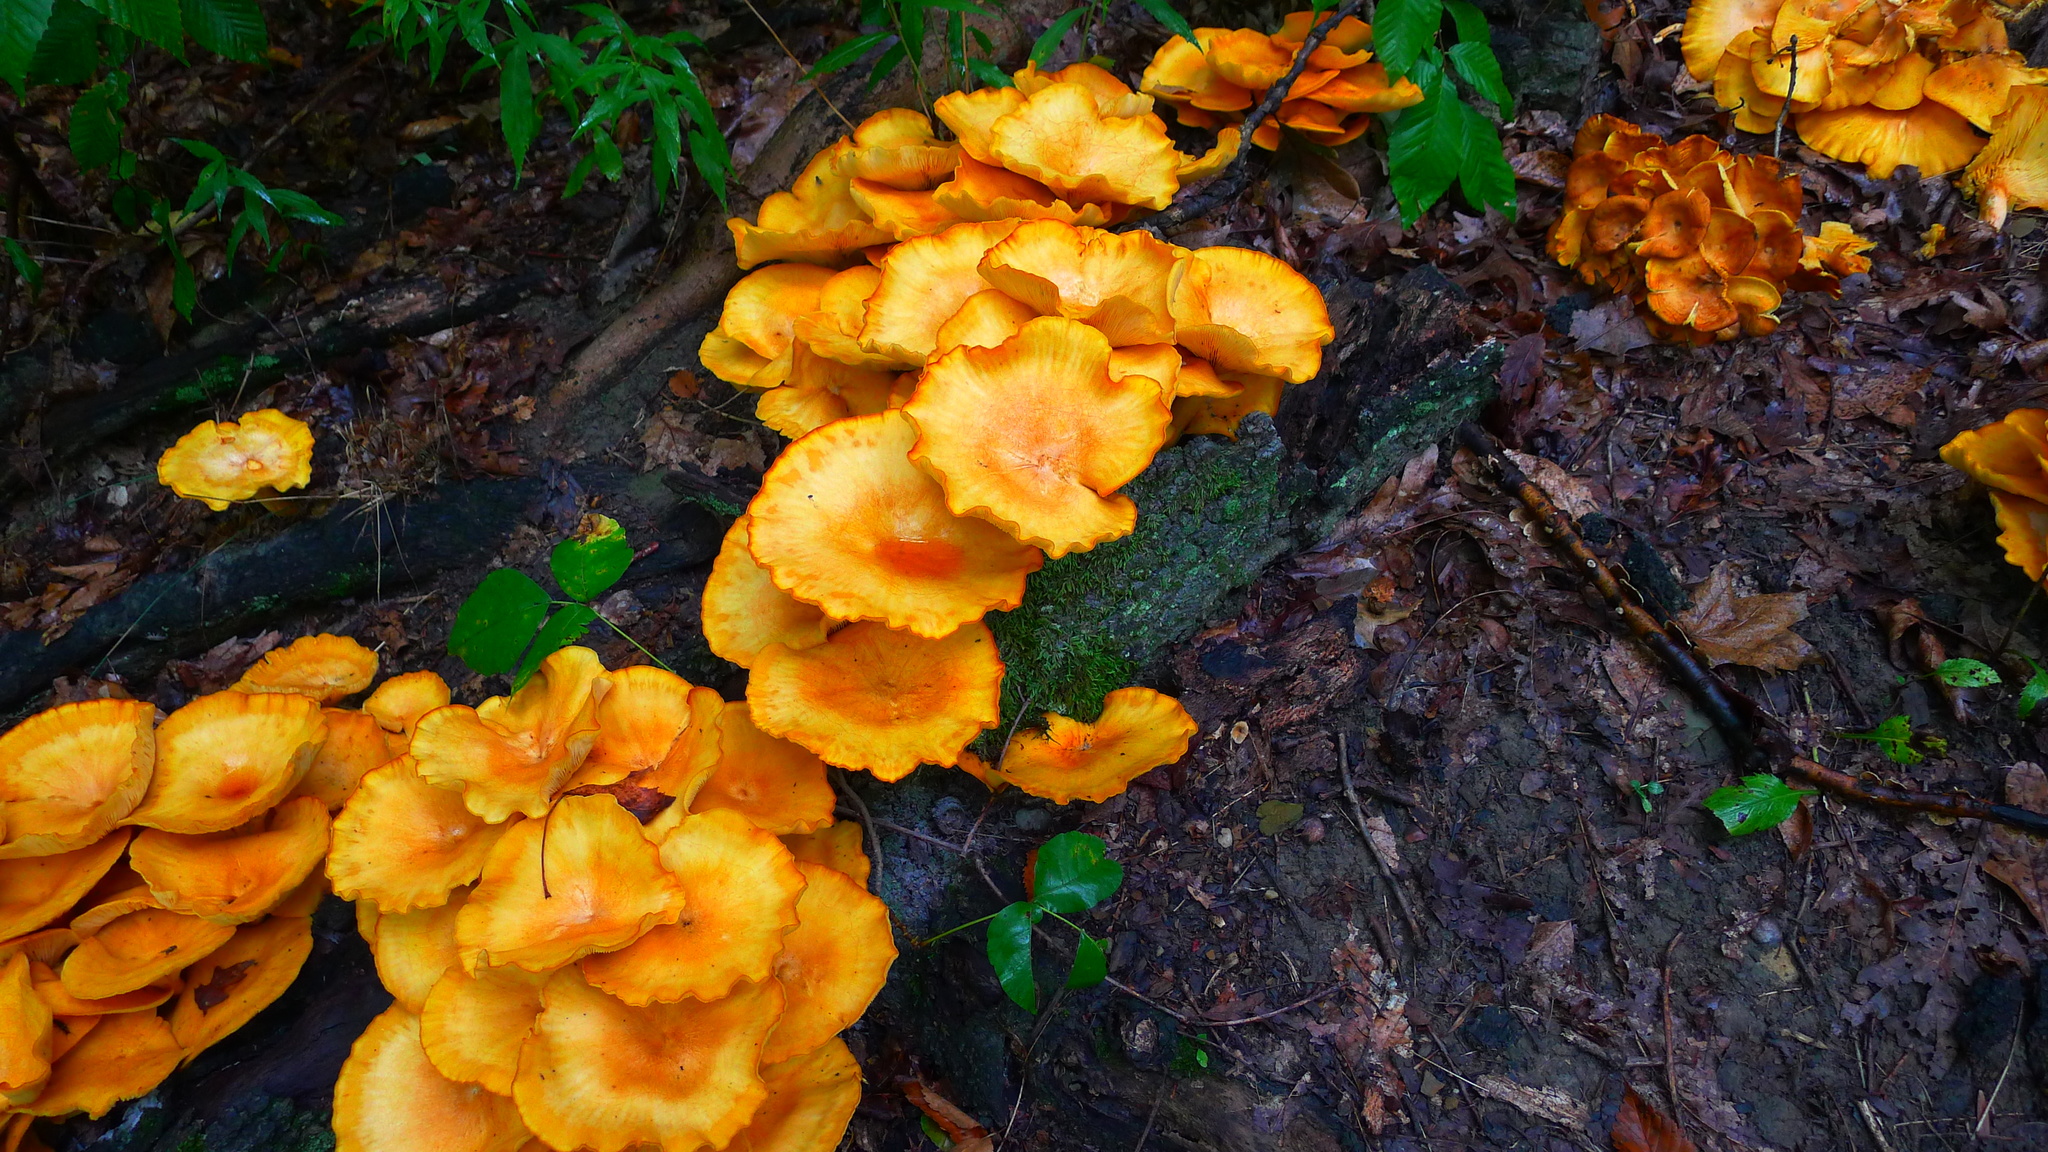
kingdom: Fungi
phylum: Basidiomycota
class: Agaricomycetes
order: Agaricales
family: Omphalotaceae
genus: Omphalotus
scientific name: Omphalotus illudens
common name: Jack o lantern
